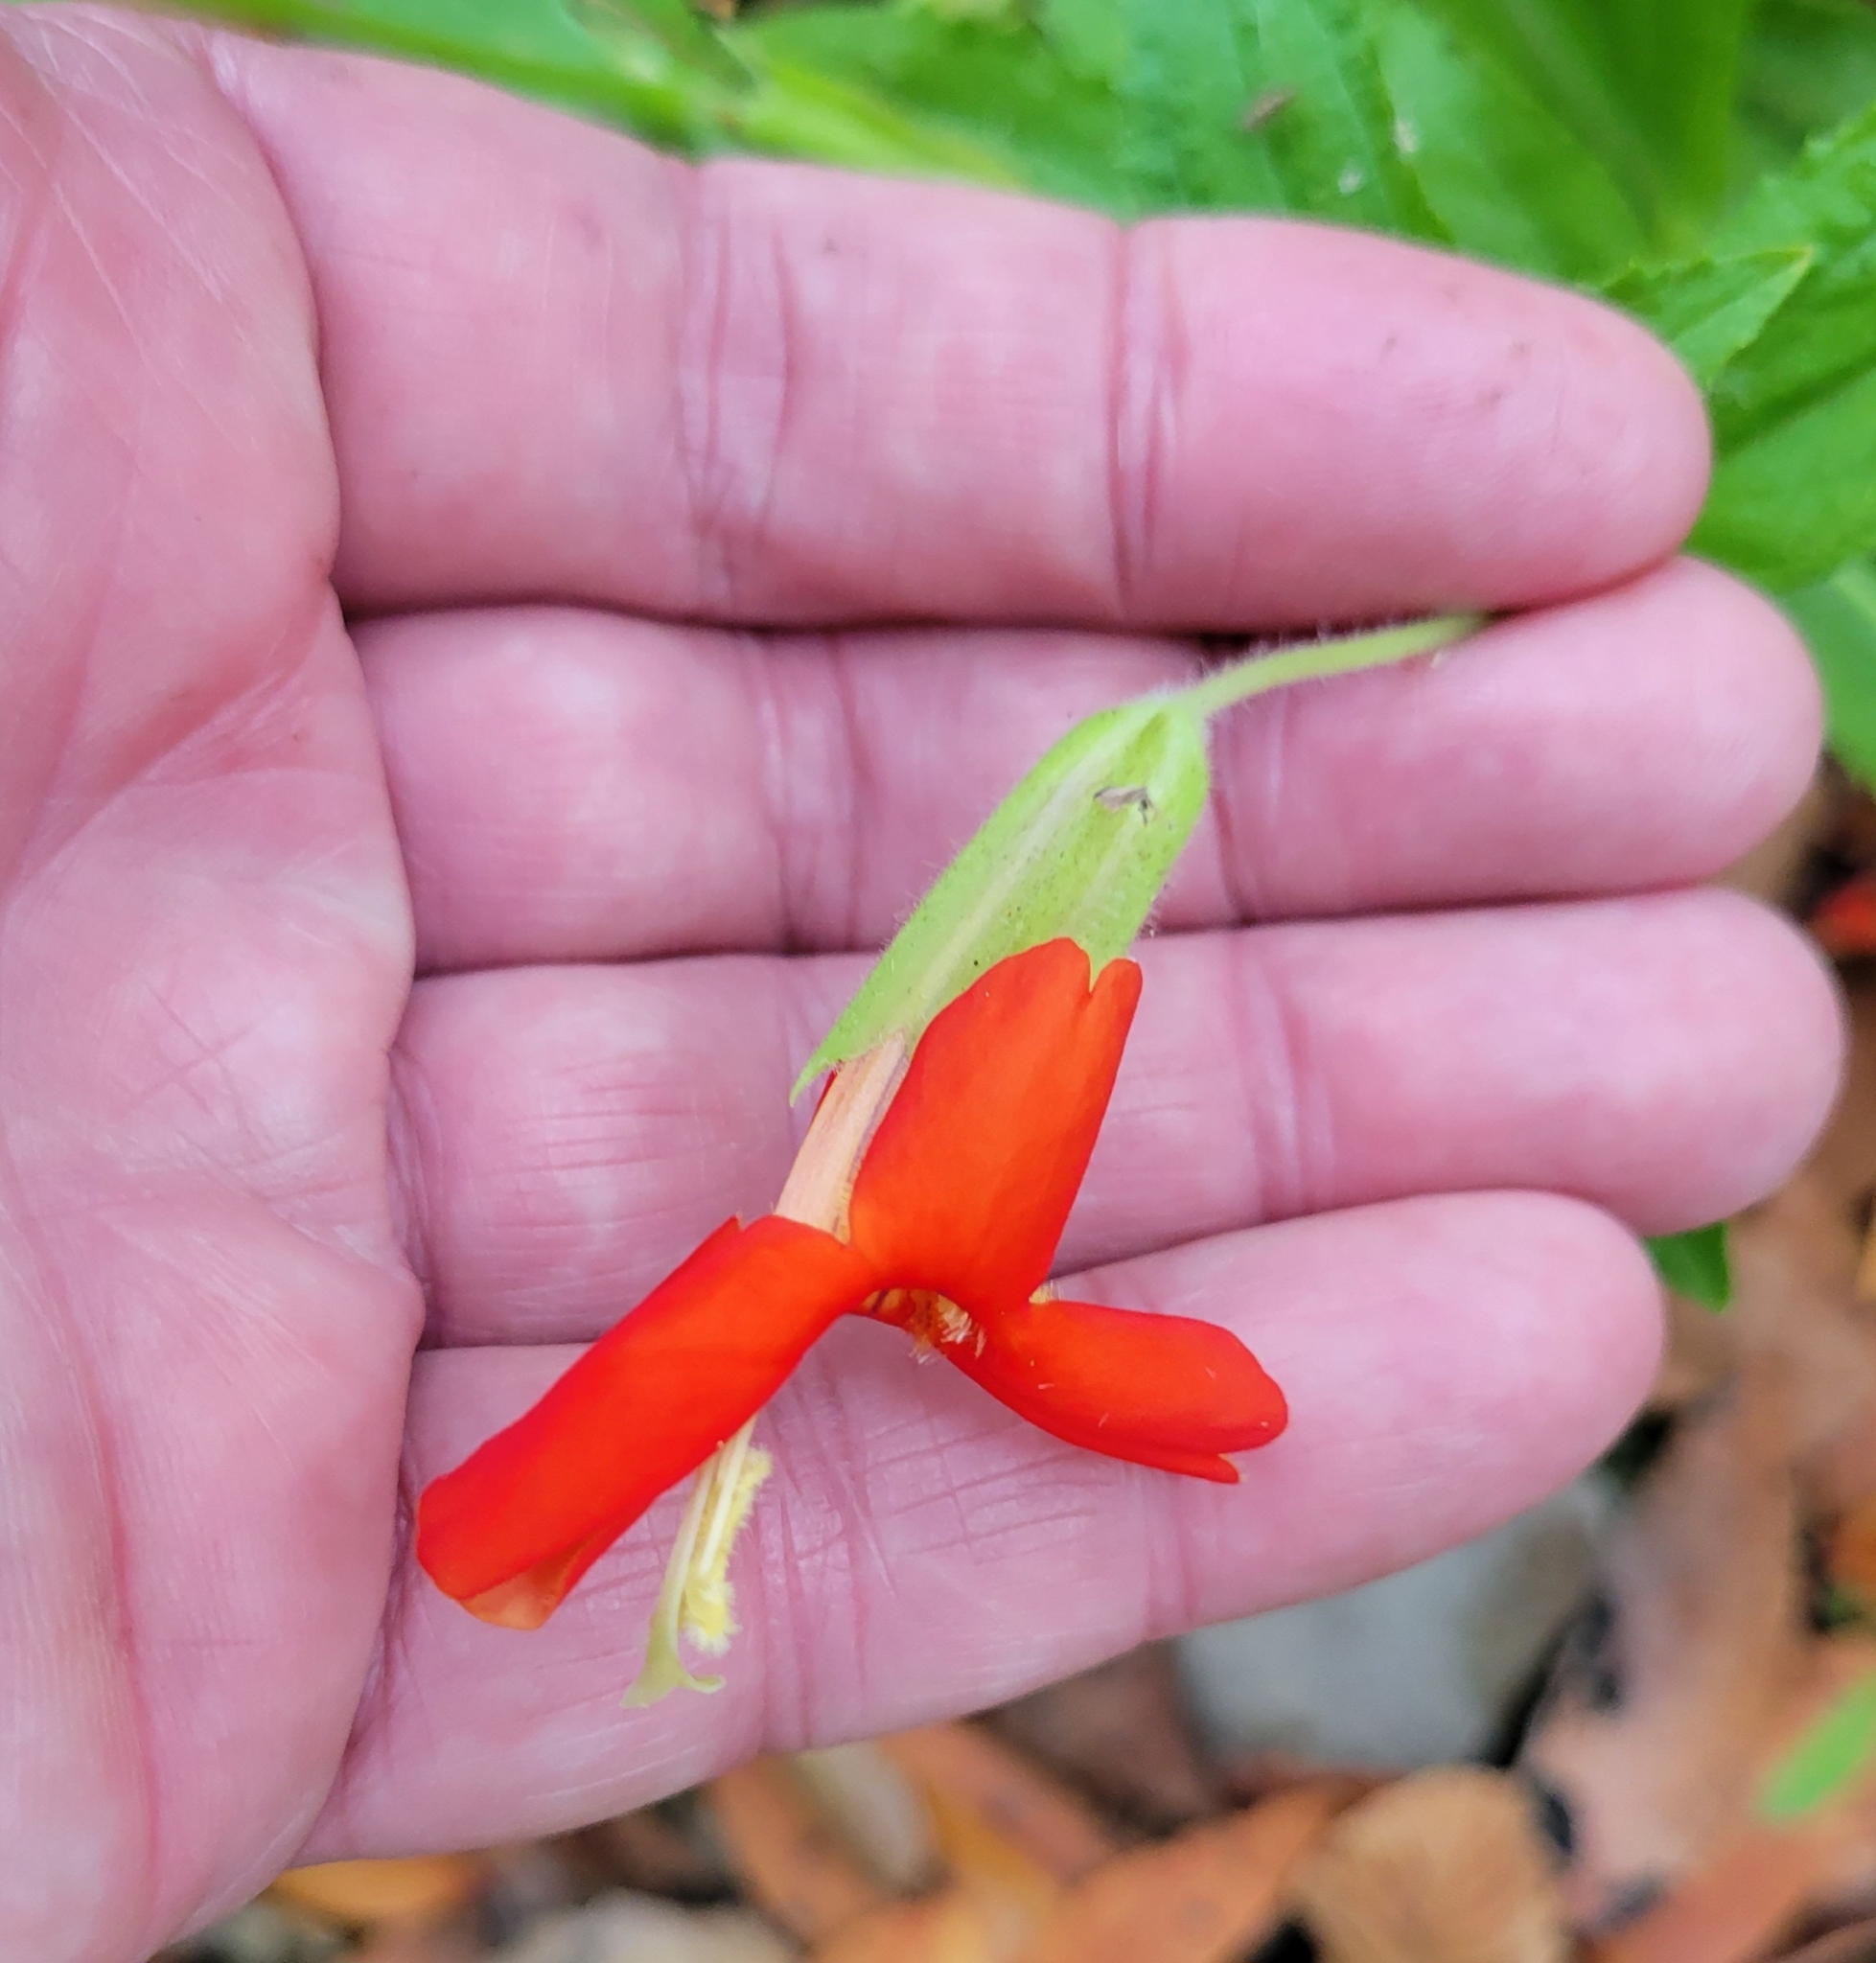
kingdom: Plantae
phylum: Tracheophyta
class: Magnoliopsida
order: Lamiales
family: Phrymaceae
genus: Erythranthe
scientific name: Erythranthe cardinalis
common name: Scarlet monkey-flower
